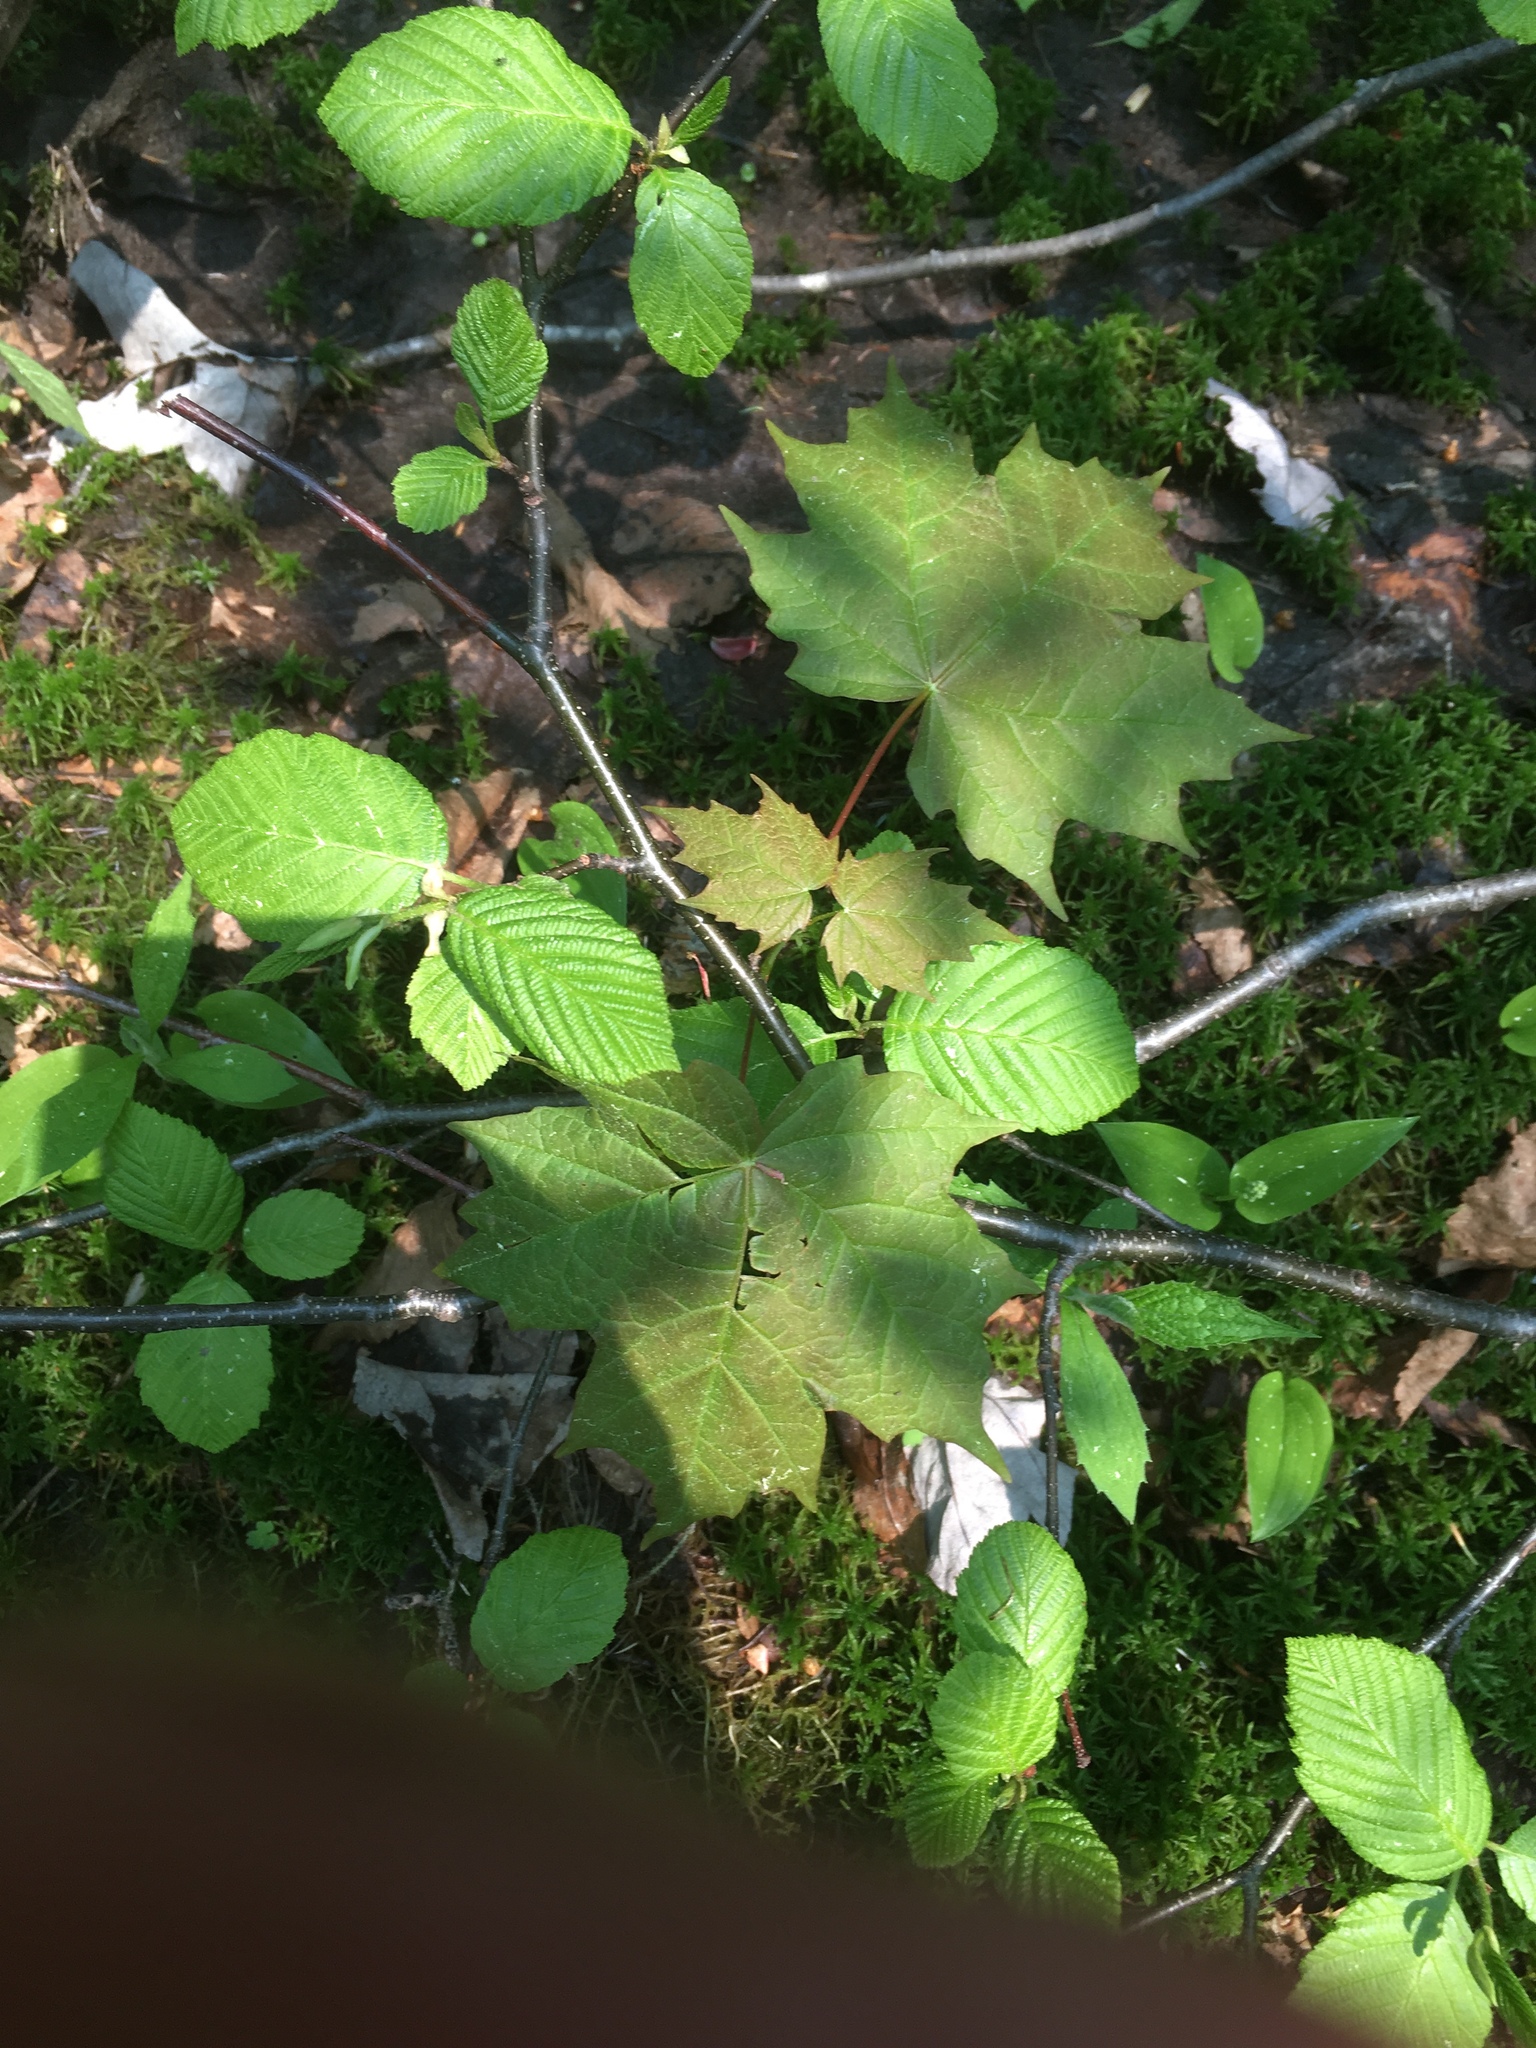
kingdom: Plantae
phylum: Tracheophyta
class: Magnoliopsida
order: Sapindales
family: Sapindaceae
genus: Acer
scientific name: Acer saccharum
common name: Sugar maple
